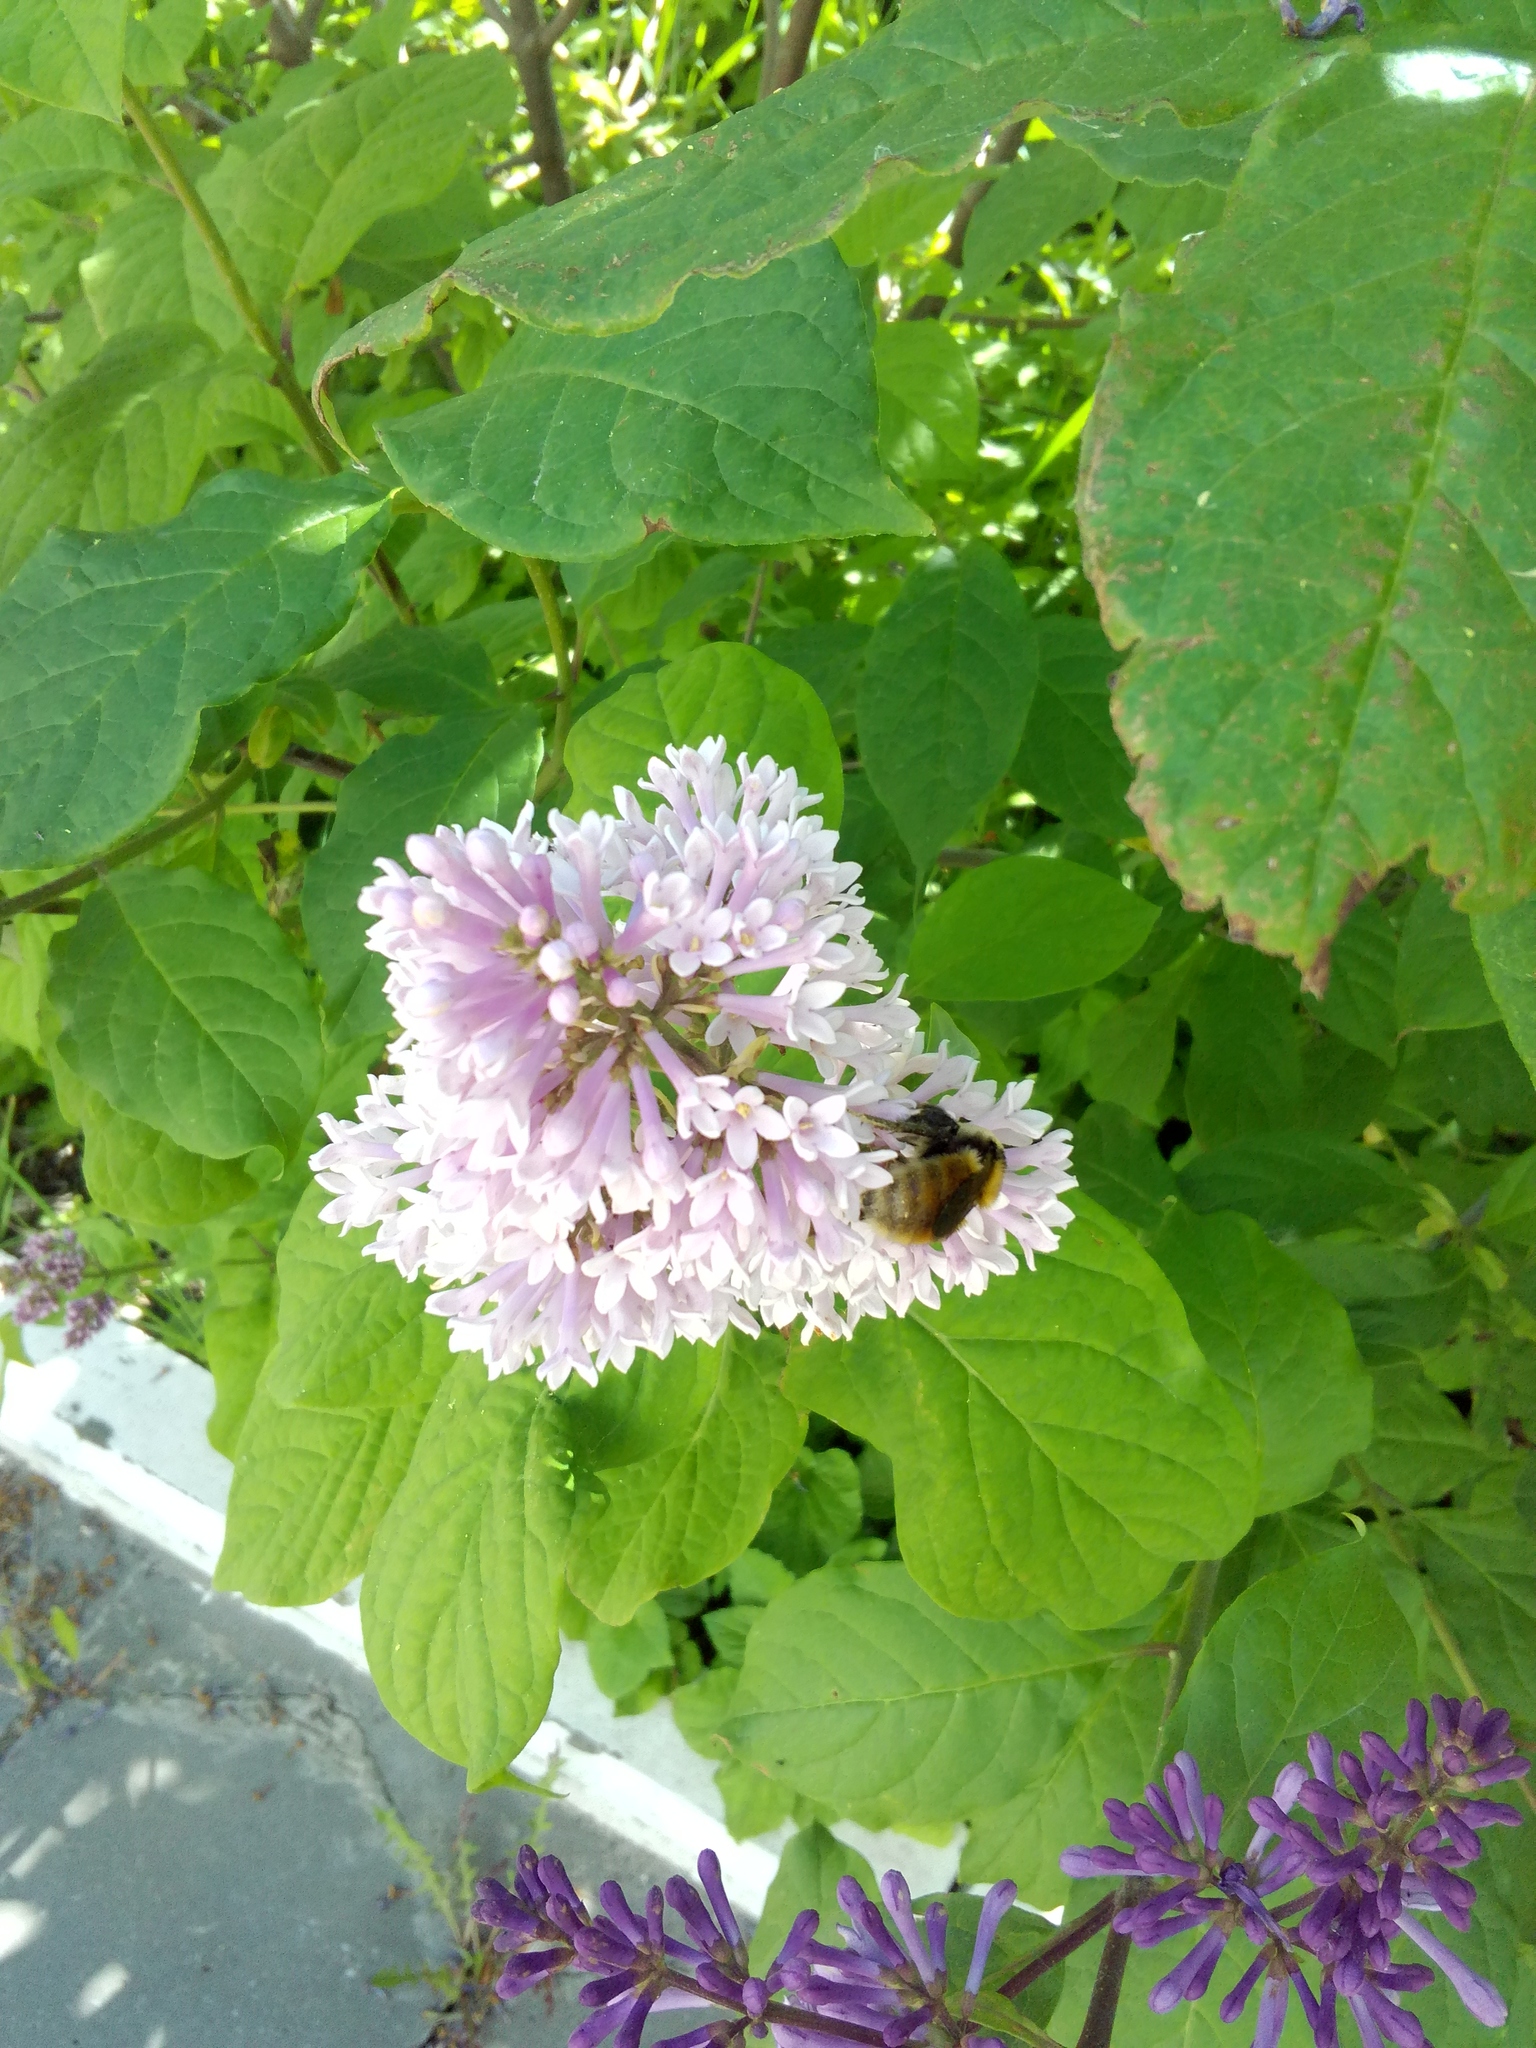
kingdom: Animalia
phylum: Arthropoda
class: Insecta
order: Hymenoptera
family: Apidae
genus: Bombus
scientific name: Bombus distinguendus
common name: Great yellow humble-bee
